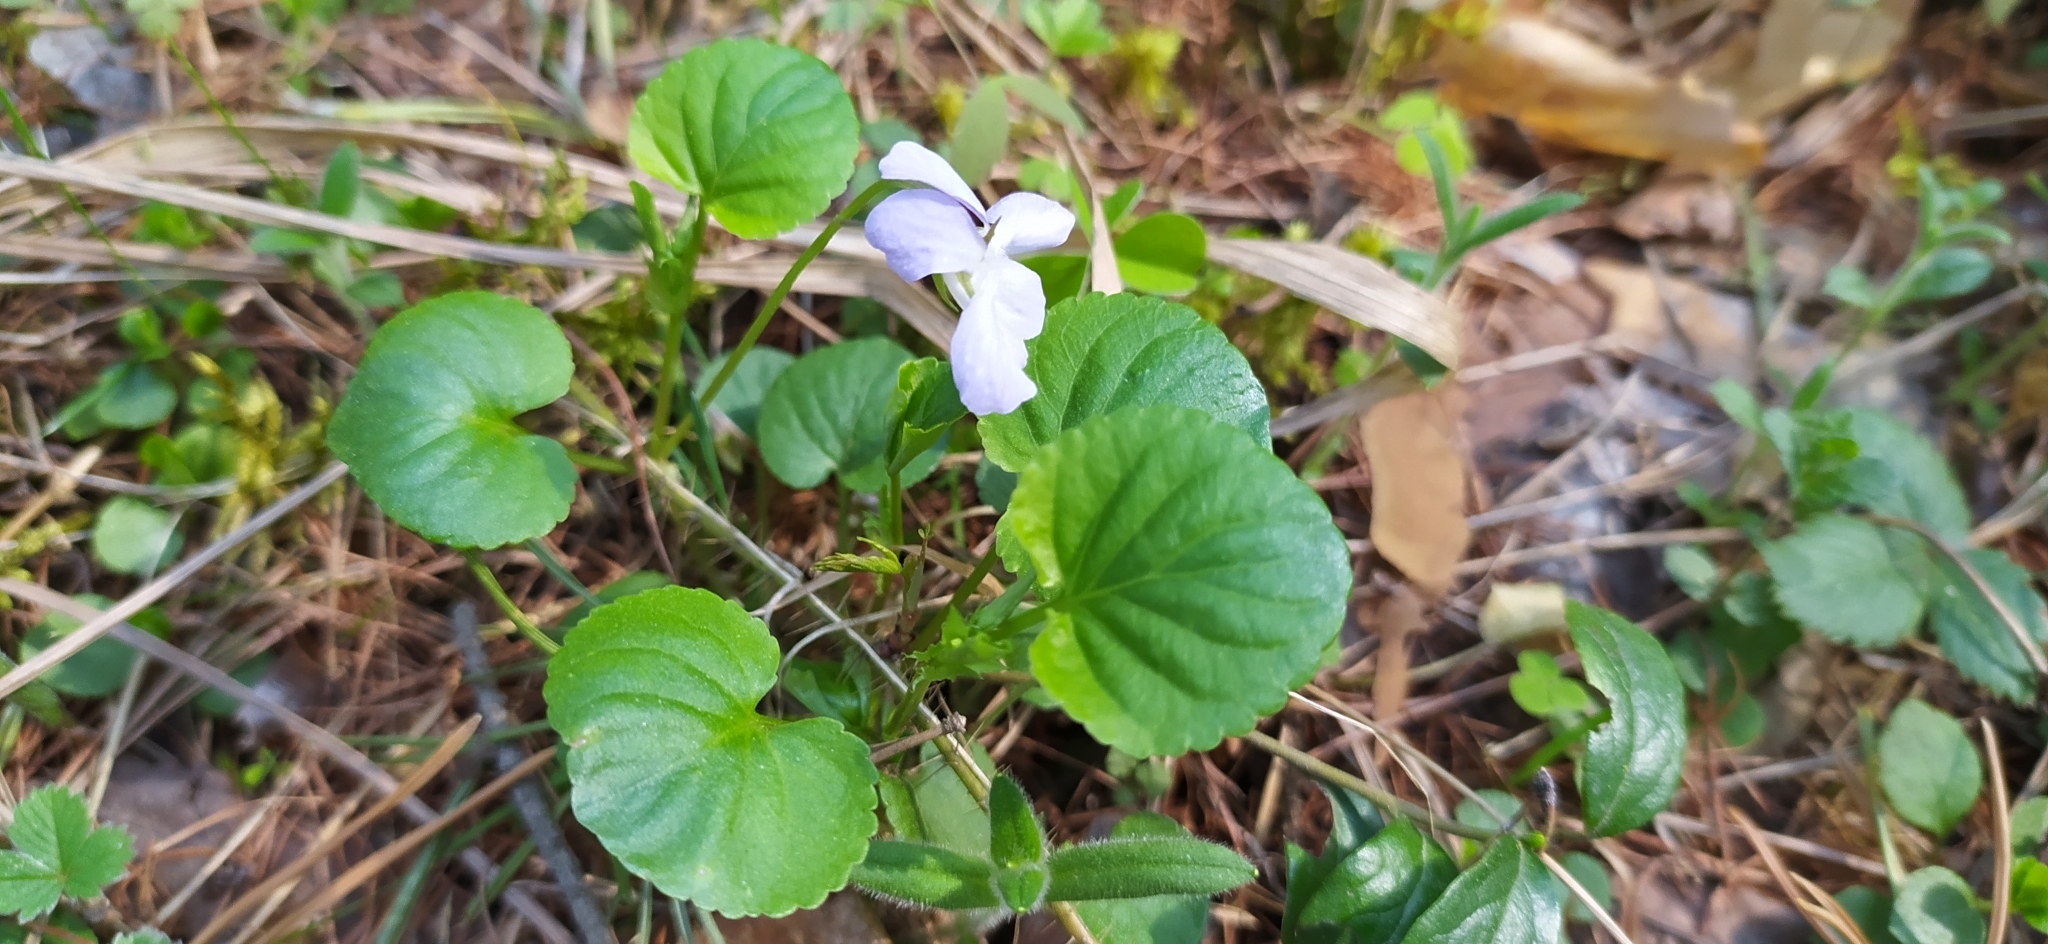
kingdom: Plantae
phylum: Tracheophyta
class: Magnoliopsida
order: Malpighiales
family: Violaceae
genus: Viola
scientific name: Viola mauritii
